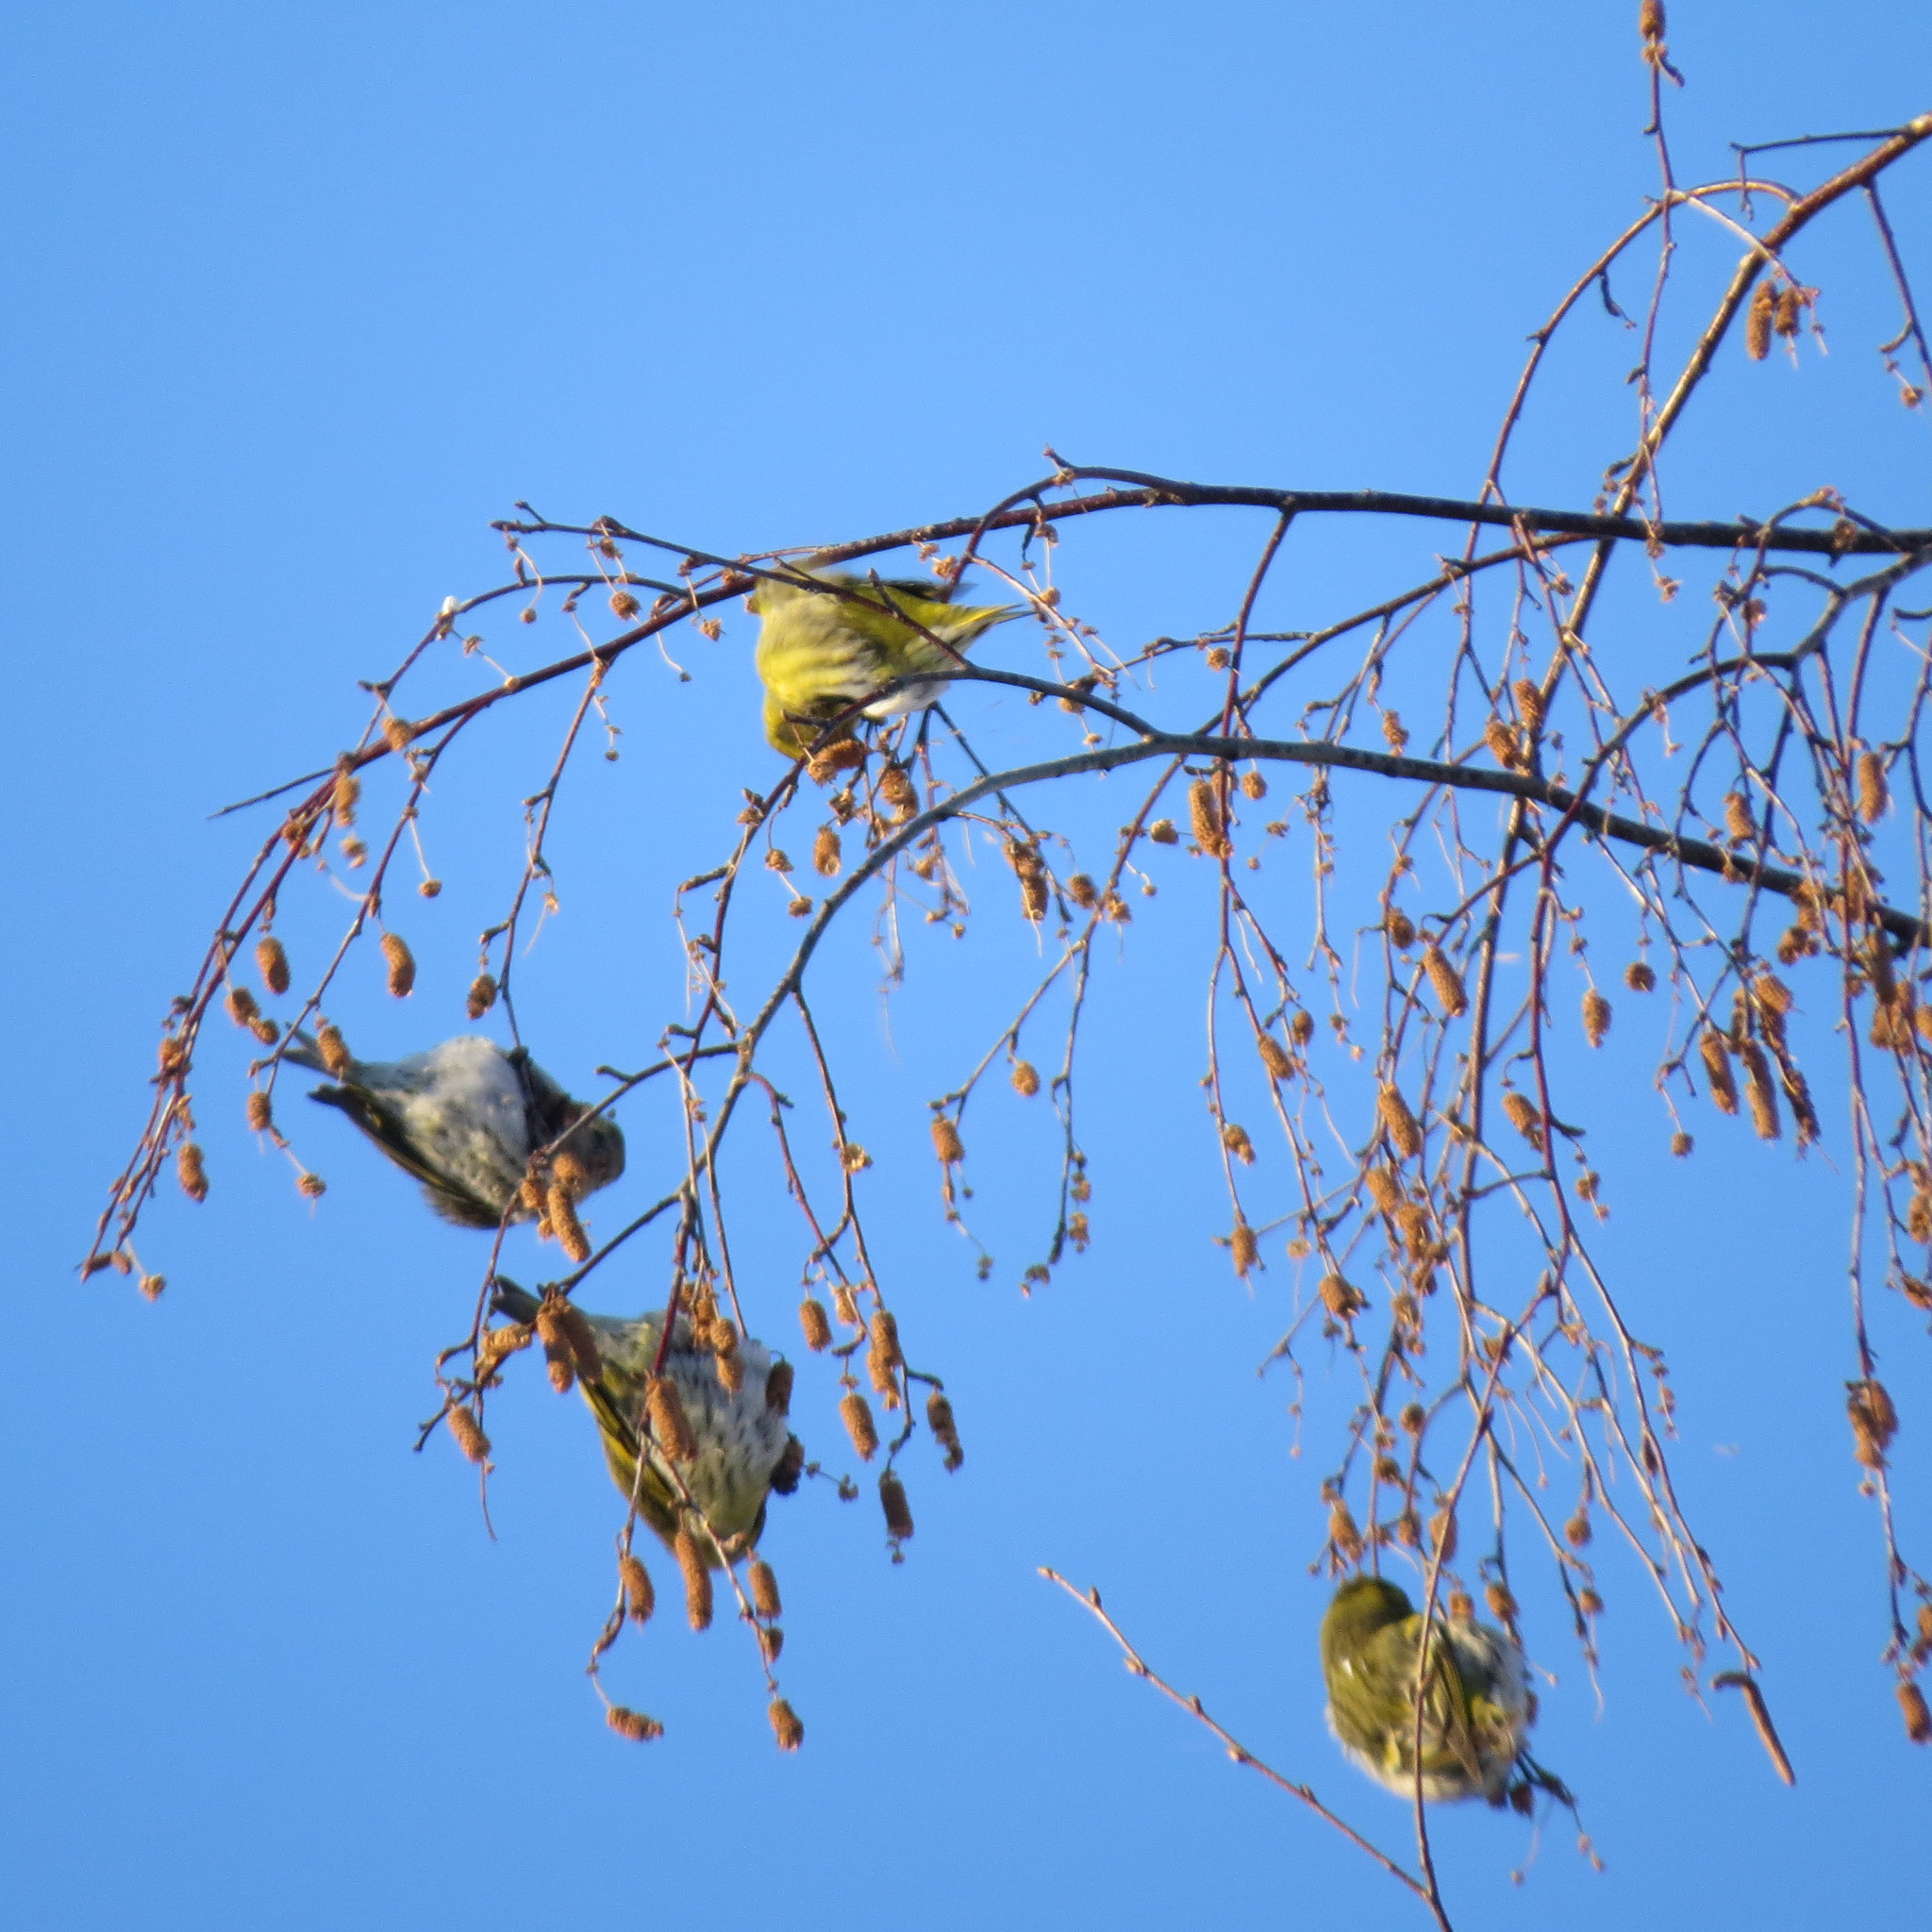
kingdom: Animalia
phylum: Chordata
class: Aves
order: Passeriformes
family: Fringillidae
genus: Spinus
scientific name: Spinus spinus
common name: Eurasian siskin
